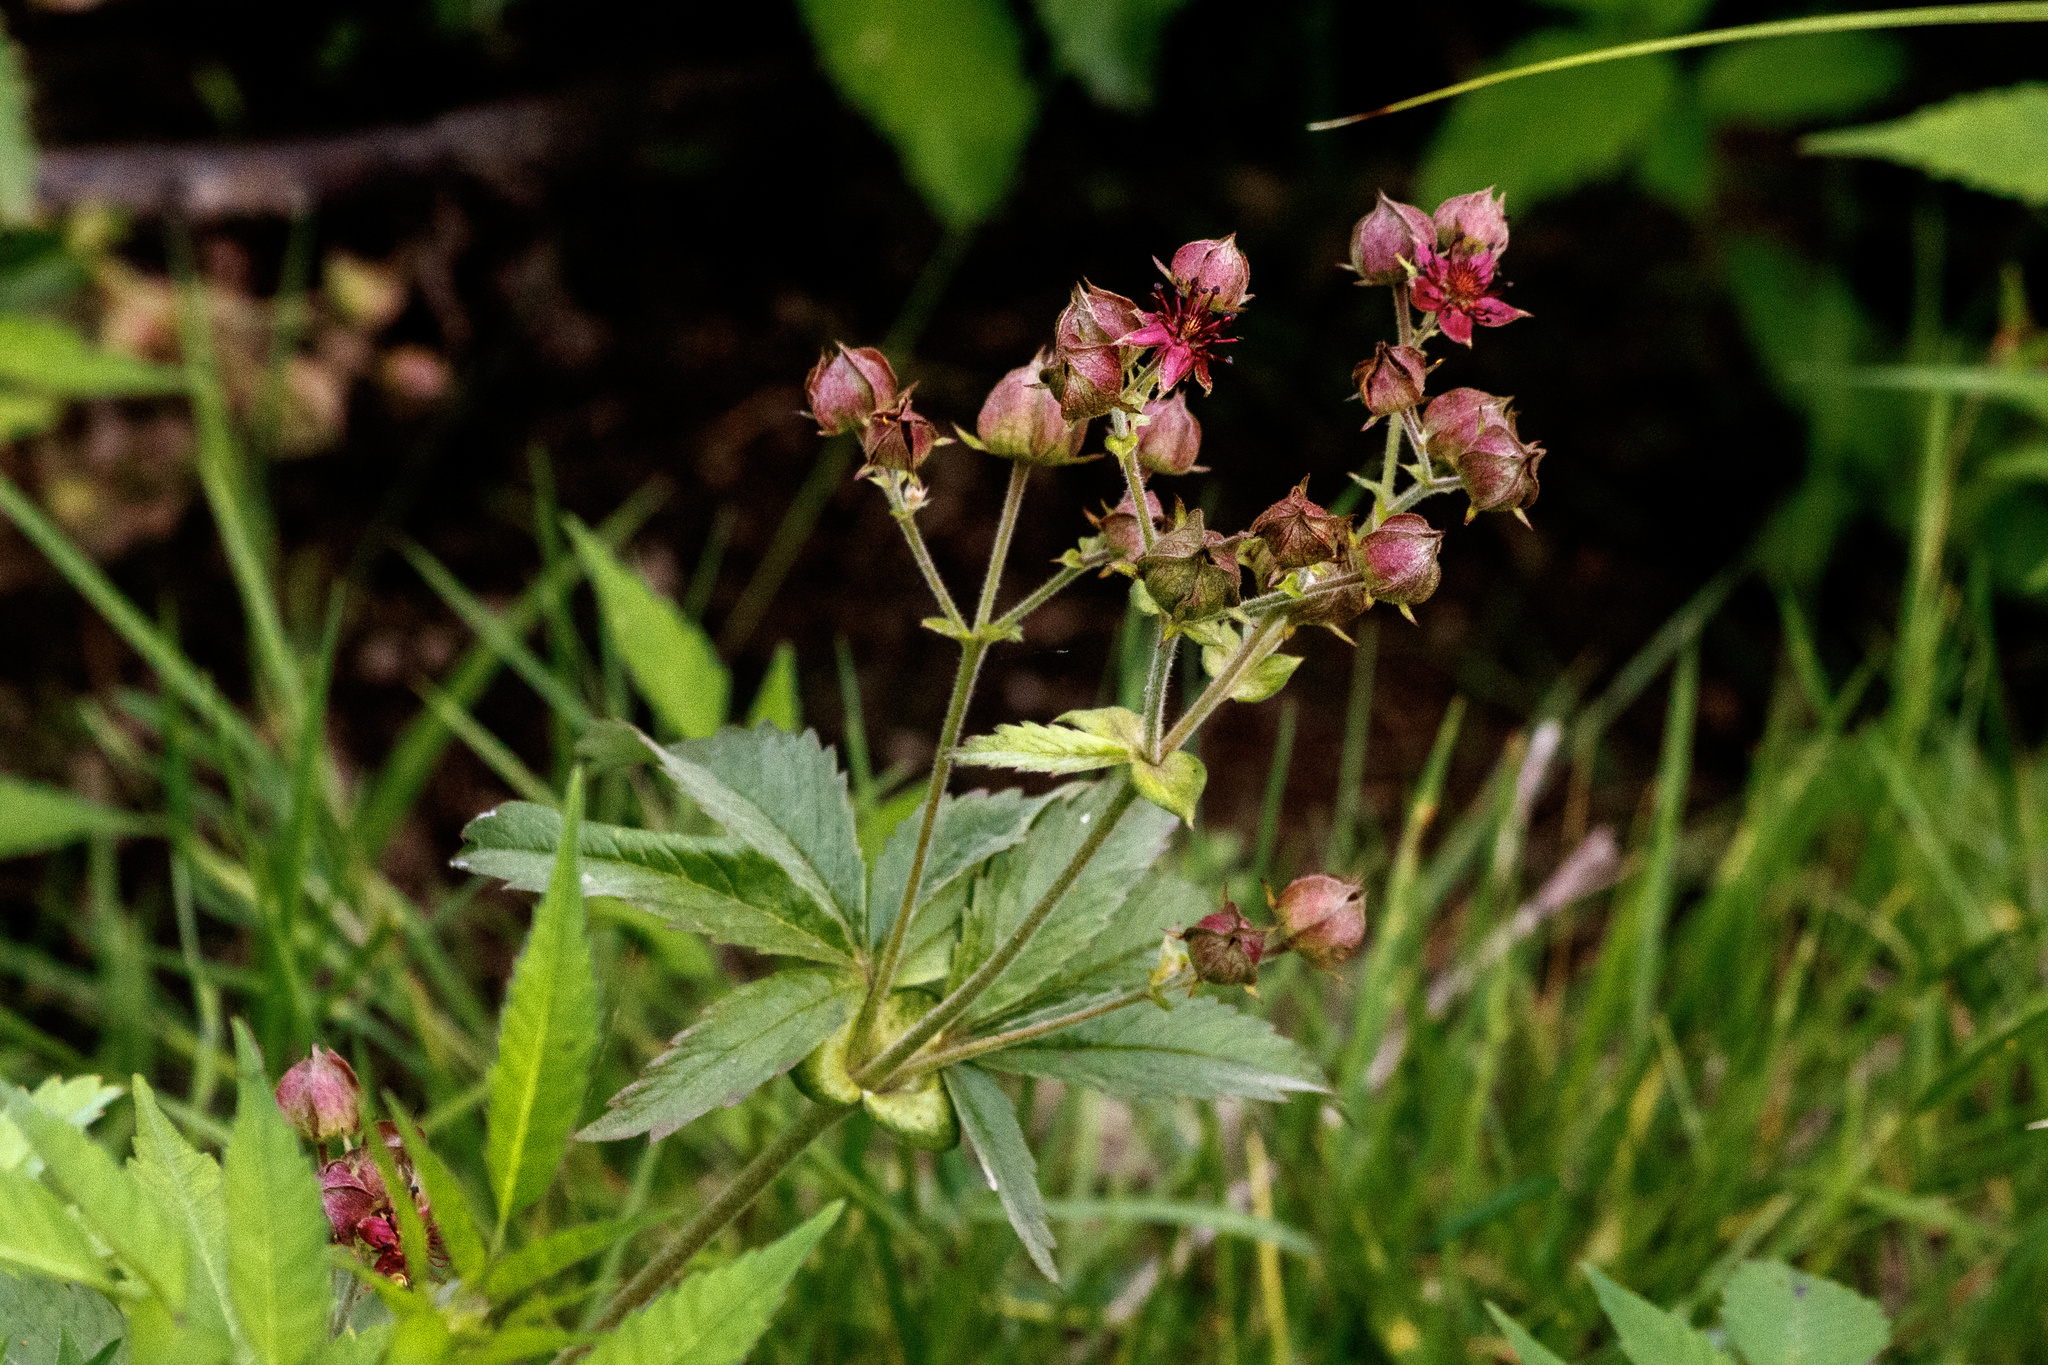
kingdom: Plantae
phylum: Tracheophyta
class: Magnoliopsida
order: Rosales
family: Rosaceae
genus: Comarum
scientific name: Comarum palustre
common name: Marsh cinquefoil
